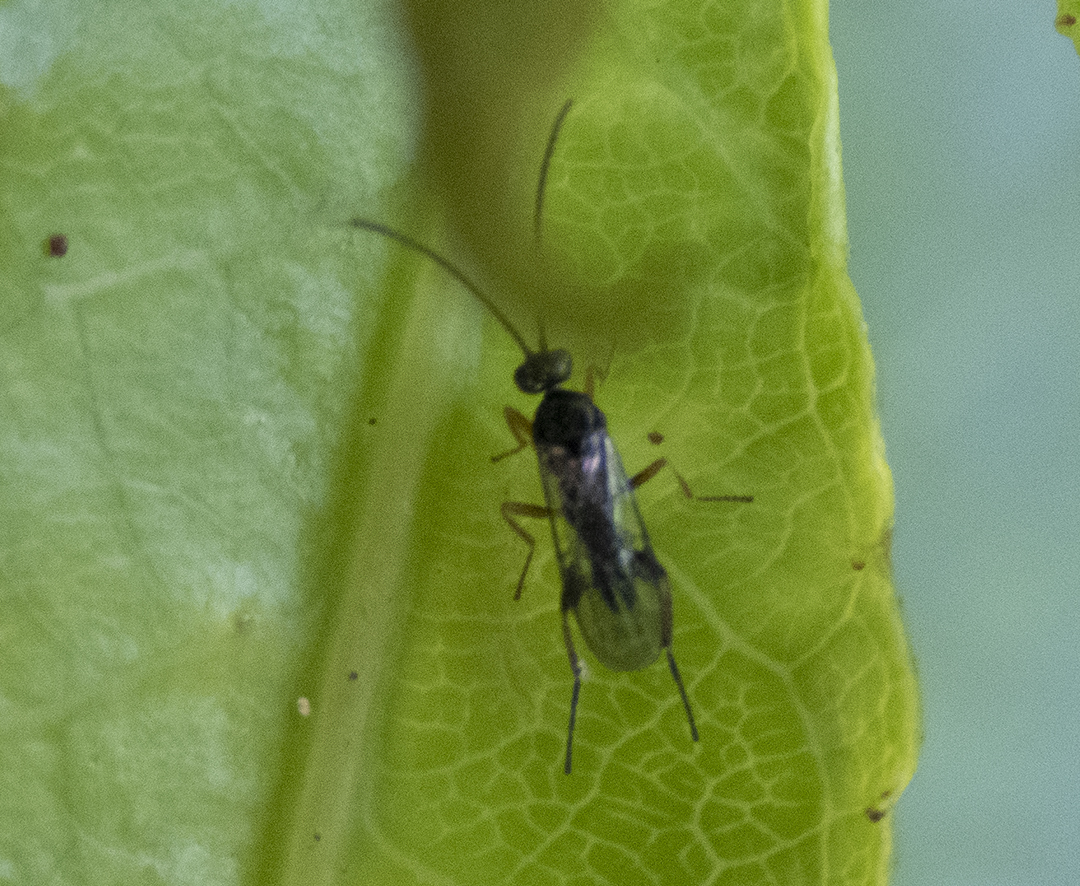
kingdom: Animalia
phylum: Arthropoda
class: Insecta
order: Hymenoptera
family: Braconidae
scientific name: Braconidae
